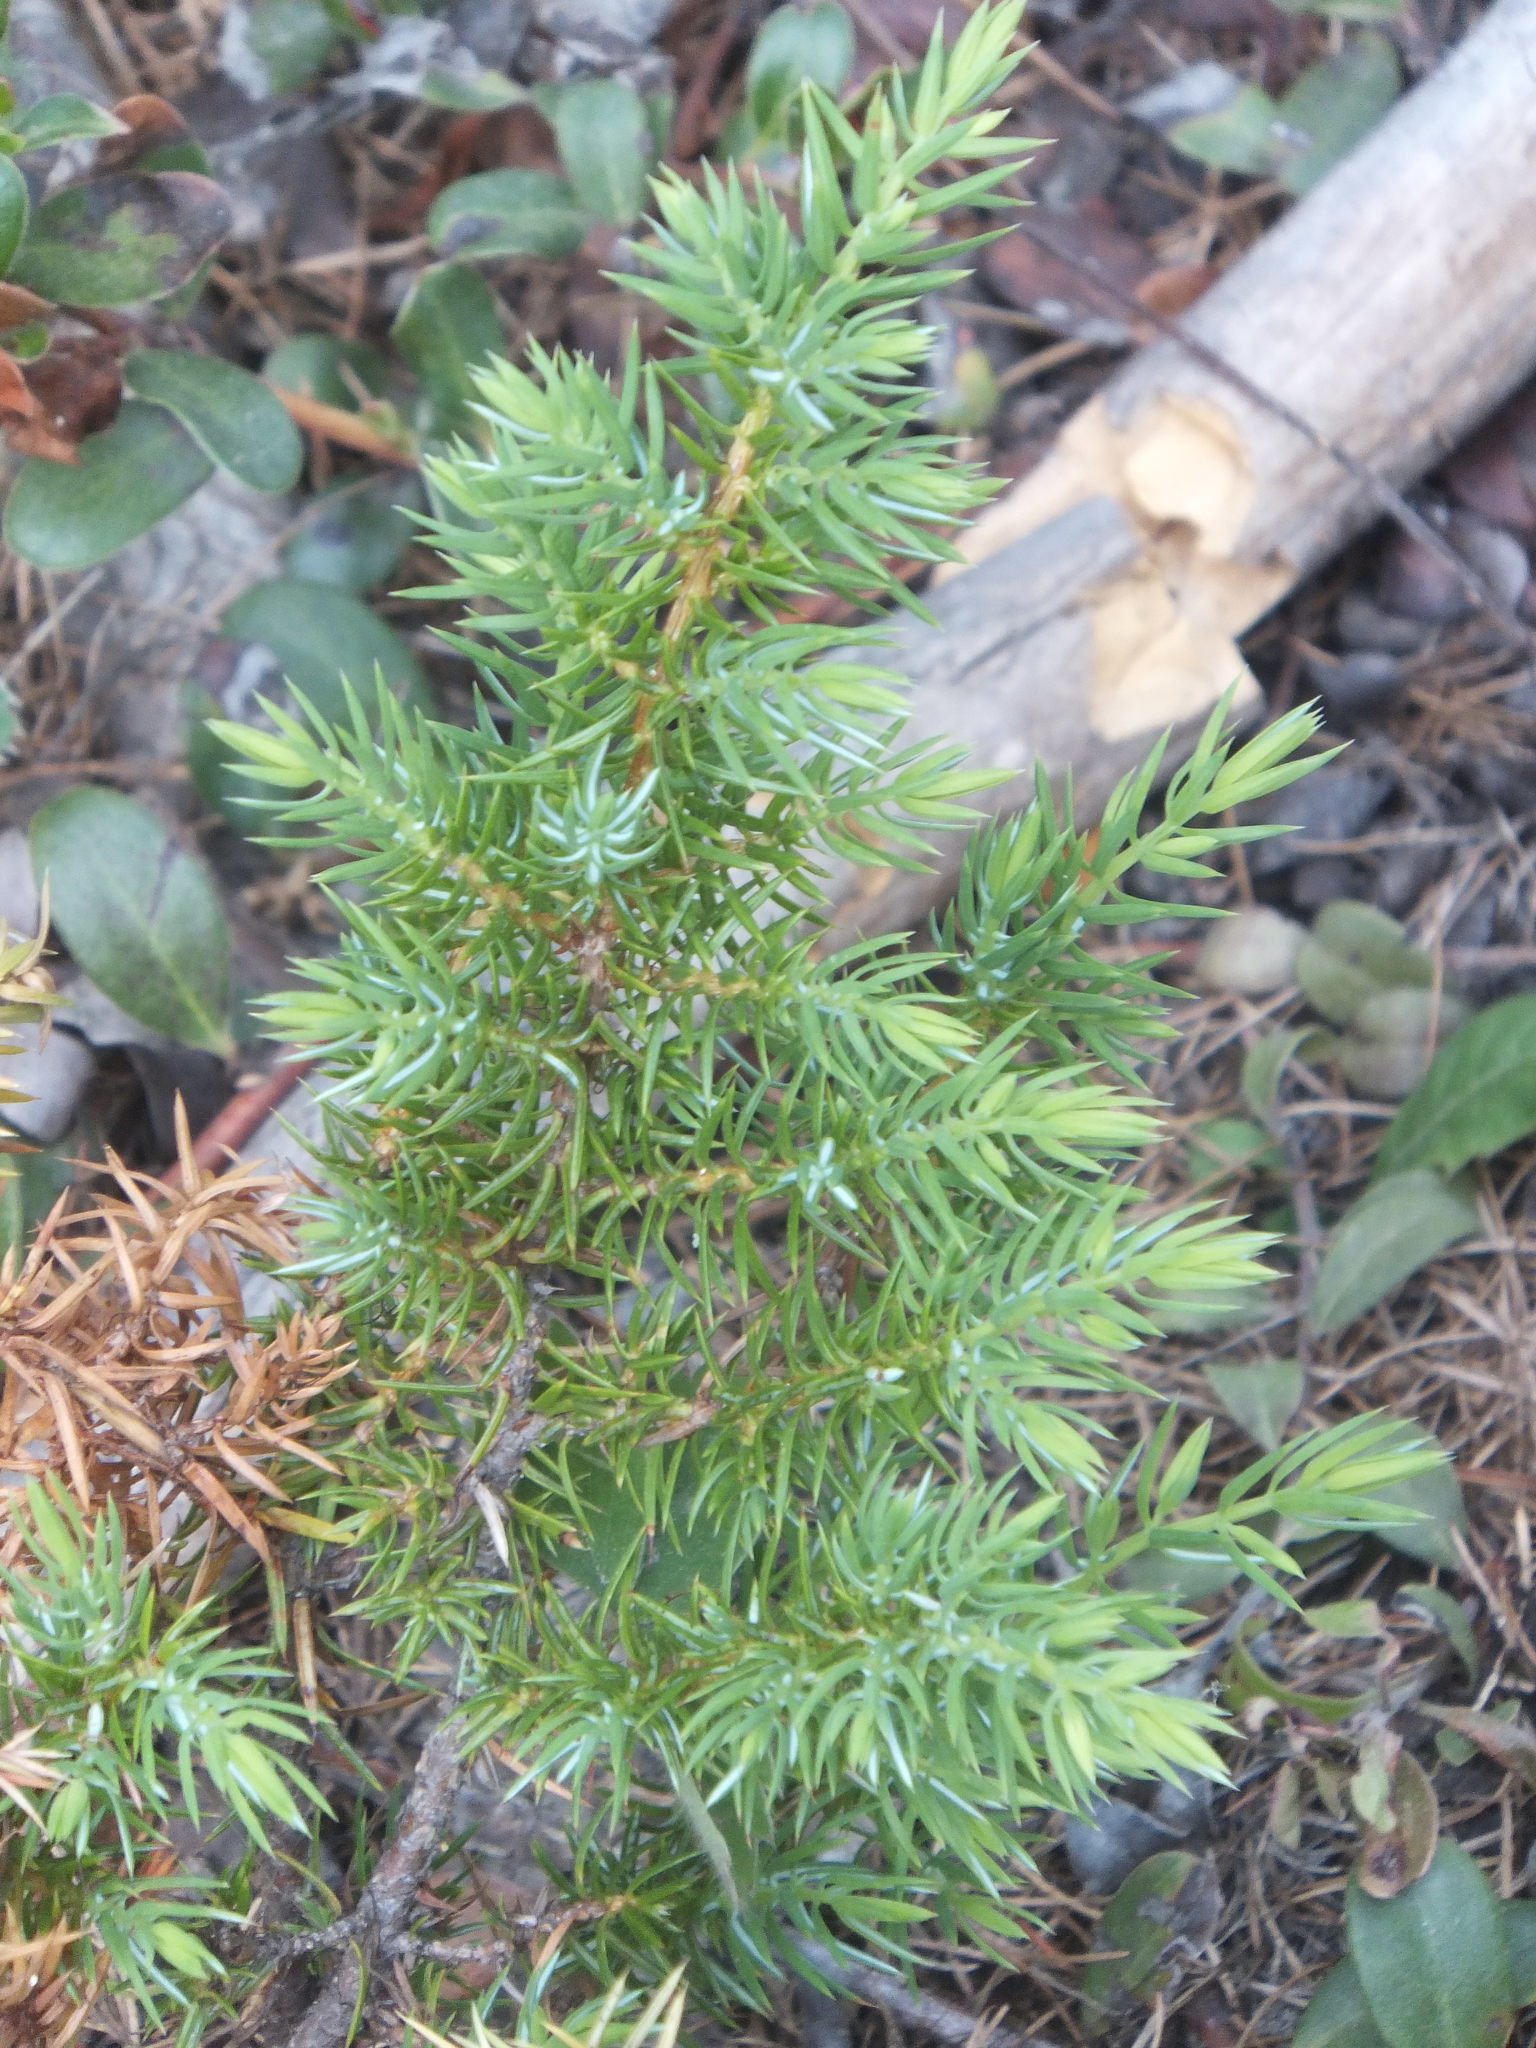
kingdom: Plantae
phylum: Tracheophyta
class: Pinopsida
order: Pinales
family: Cupressaceae
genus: Juniperus
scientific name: Juniperus communis
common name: Common juniper
